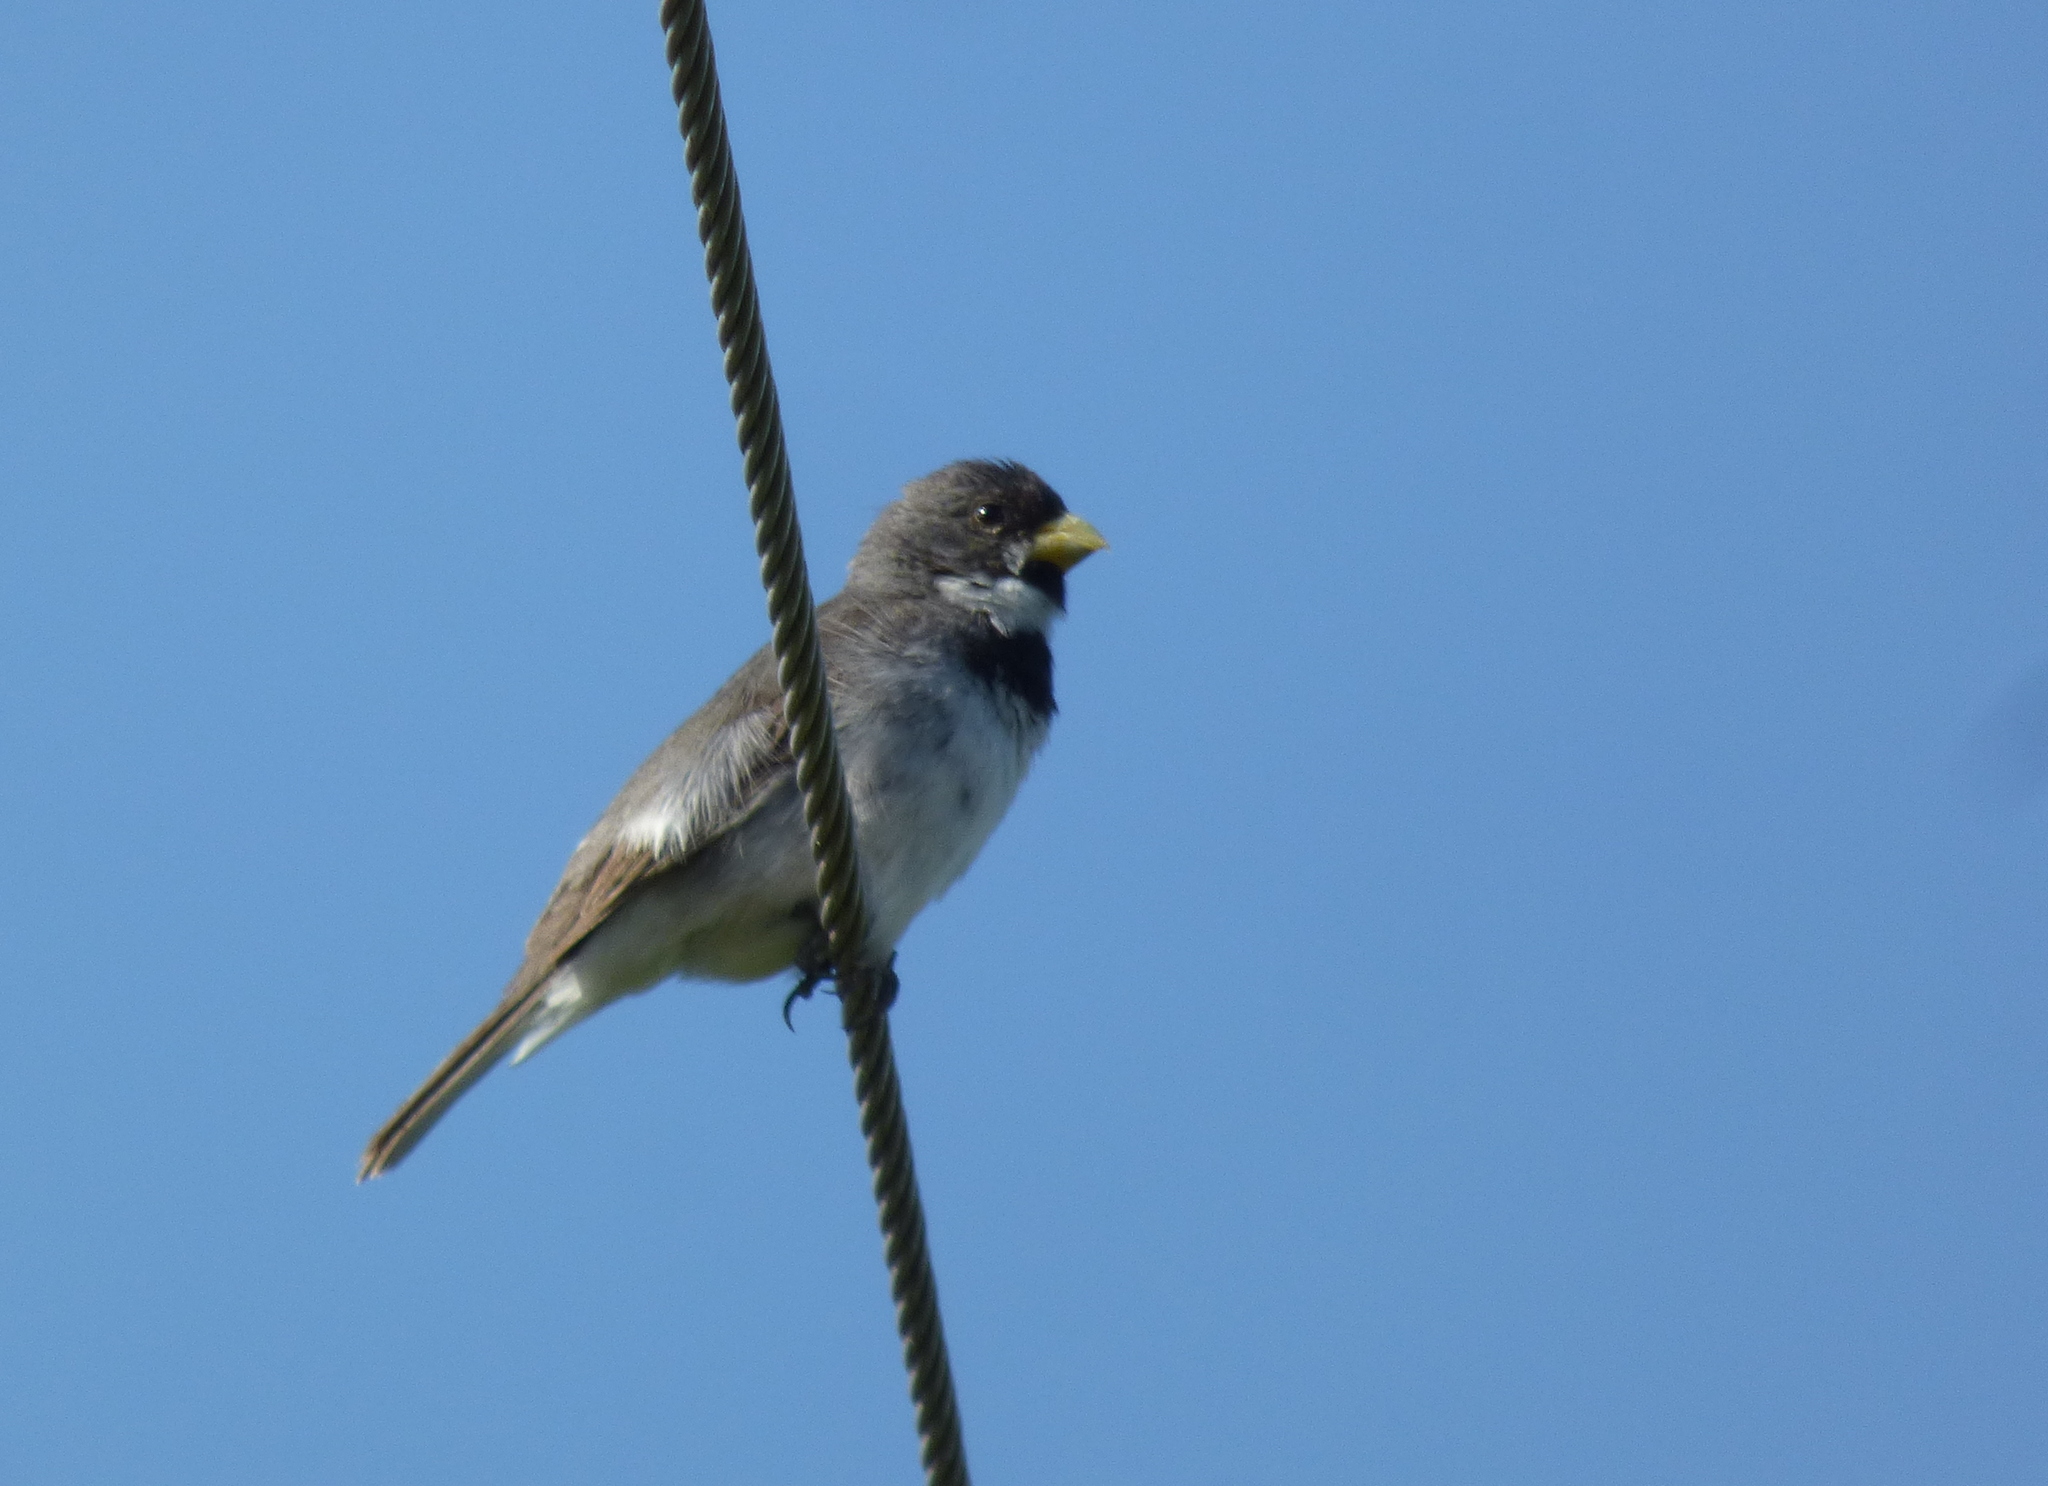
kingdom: Animalia
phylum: Chordata
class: Aves
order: Passeriformes
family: Thraupidae
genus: Sporophila
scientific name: Sporophila caerulescens
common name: Double-collared seedeater
